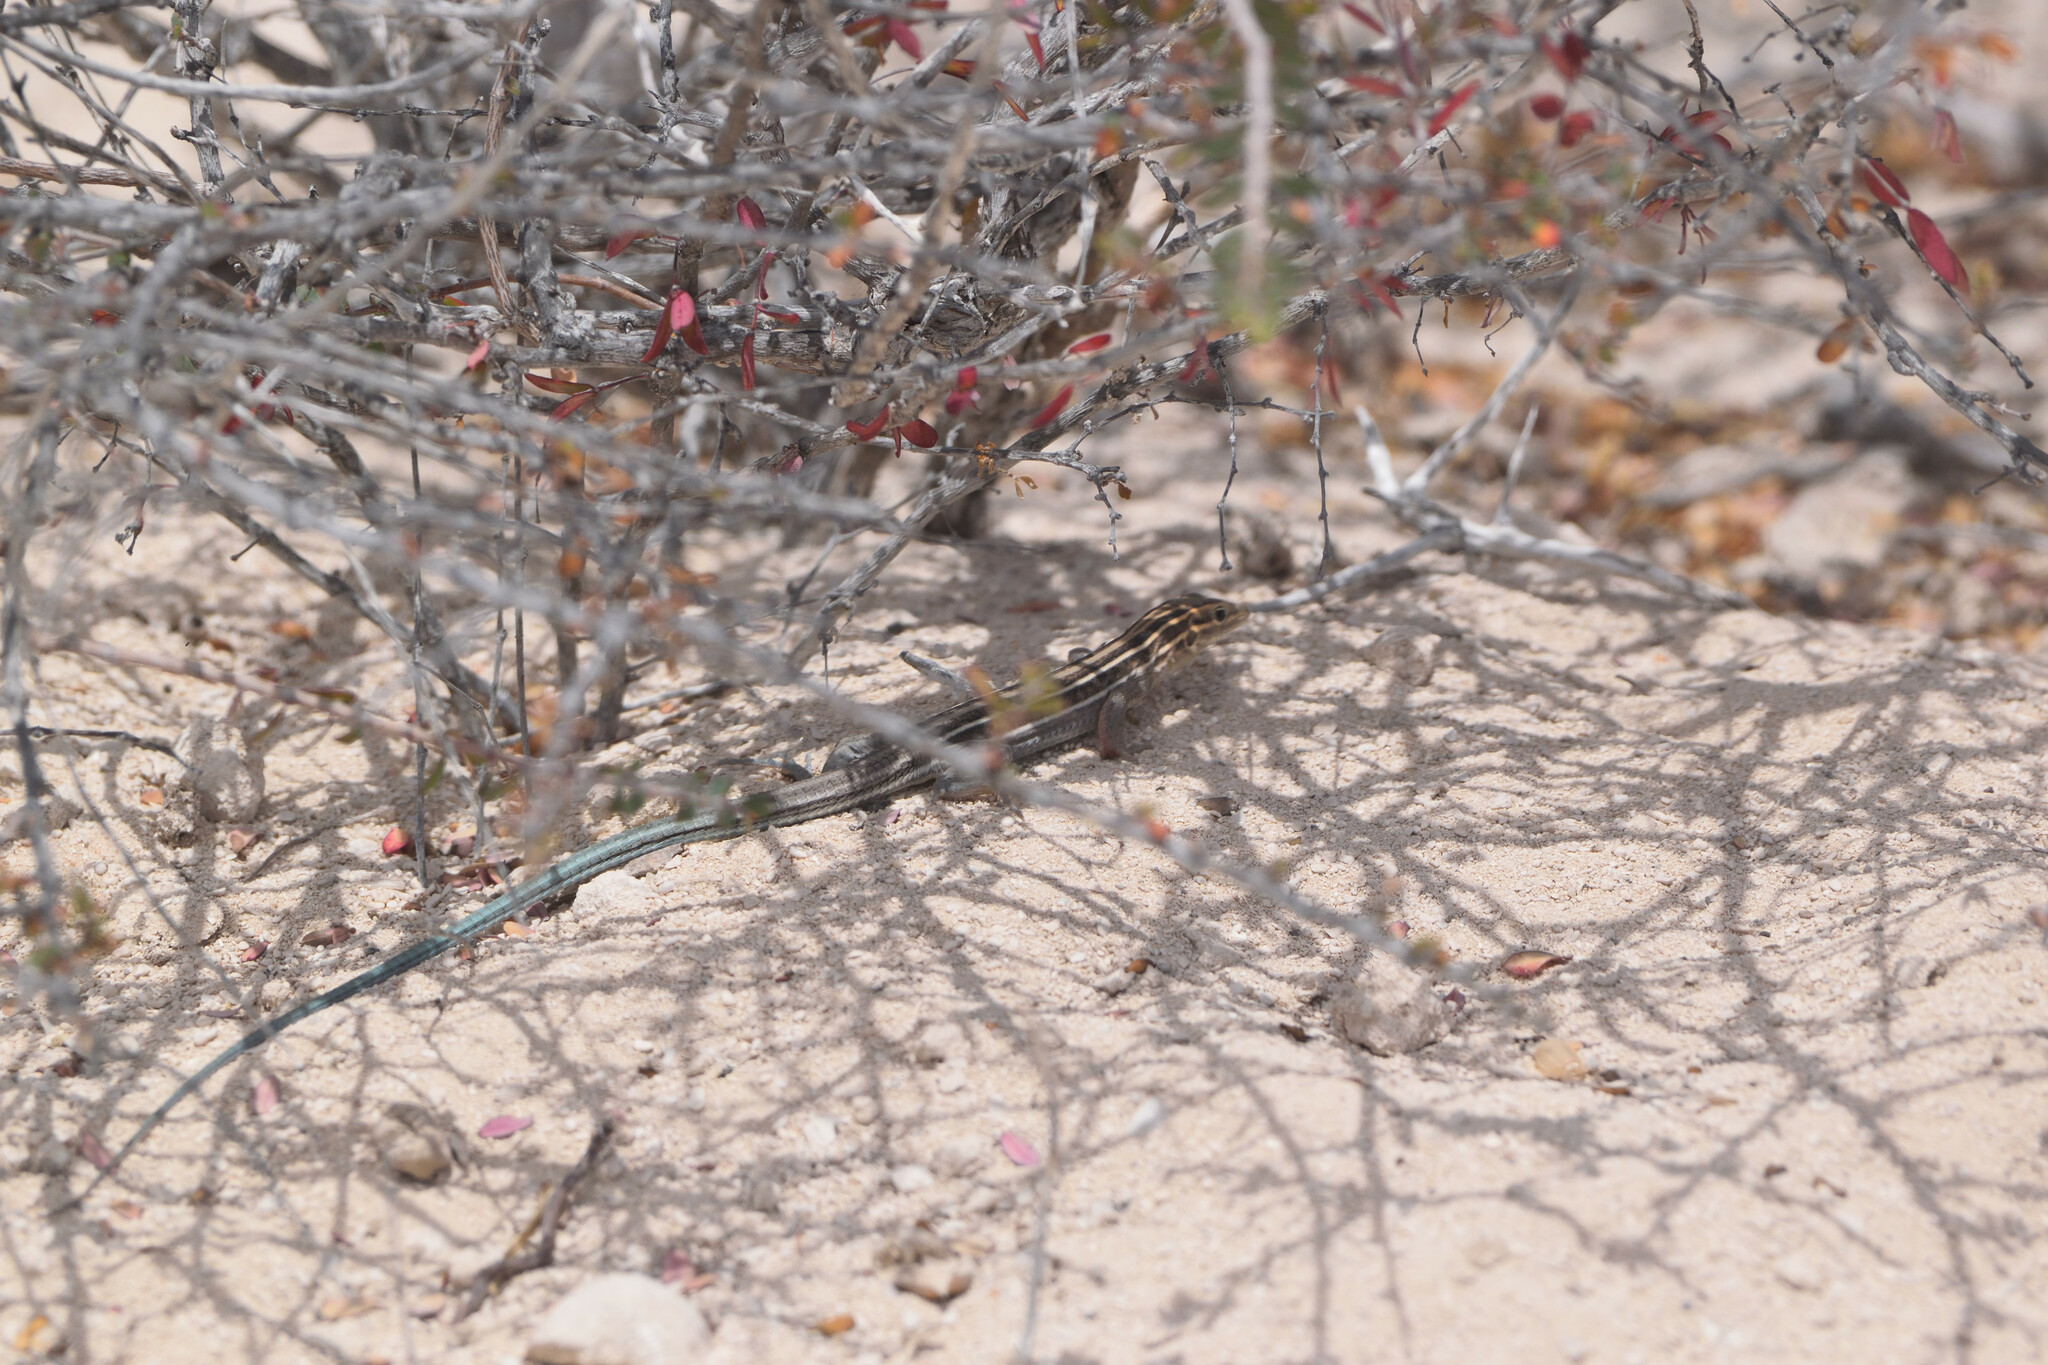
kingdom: Animalia
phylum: Chordata
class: Squamata
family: Teiidae
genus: Aspidoscelis
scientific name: Aspidoscelis espiritensis
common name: Espiritu santo whiptail
